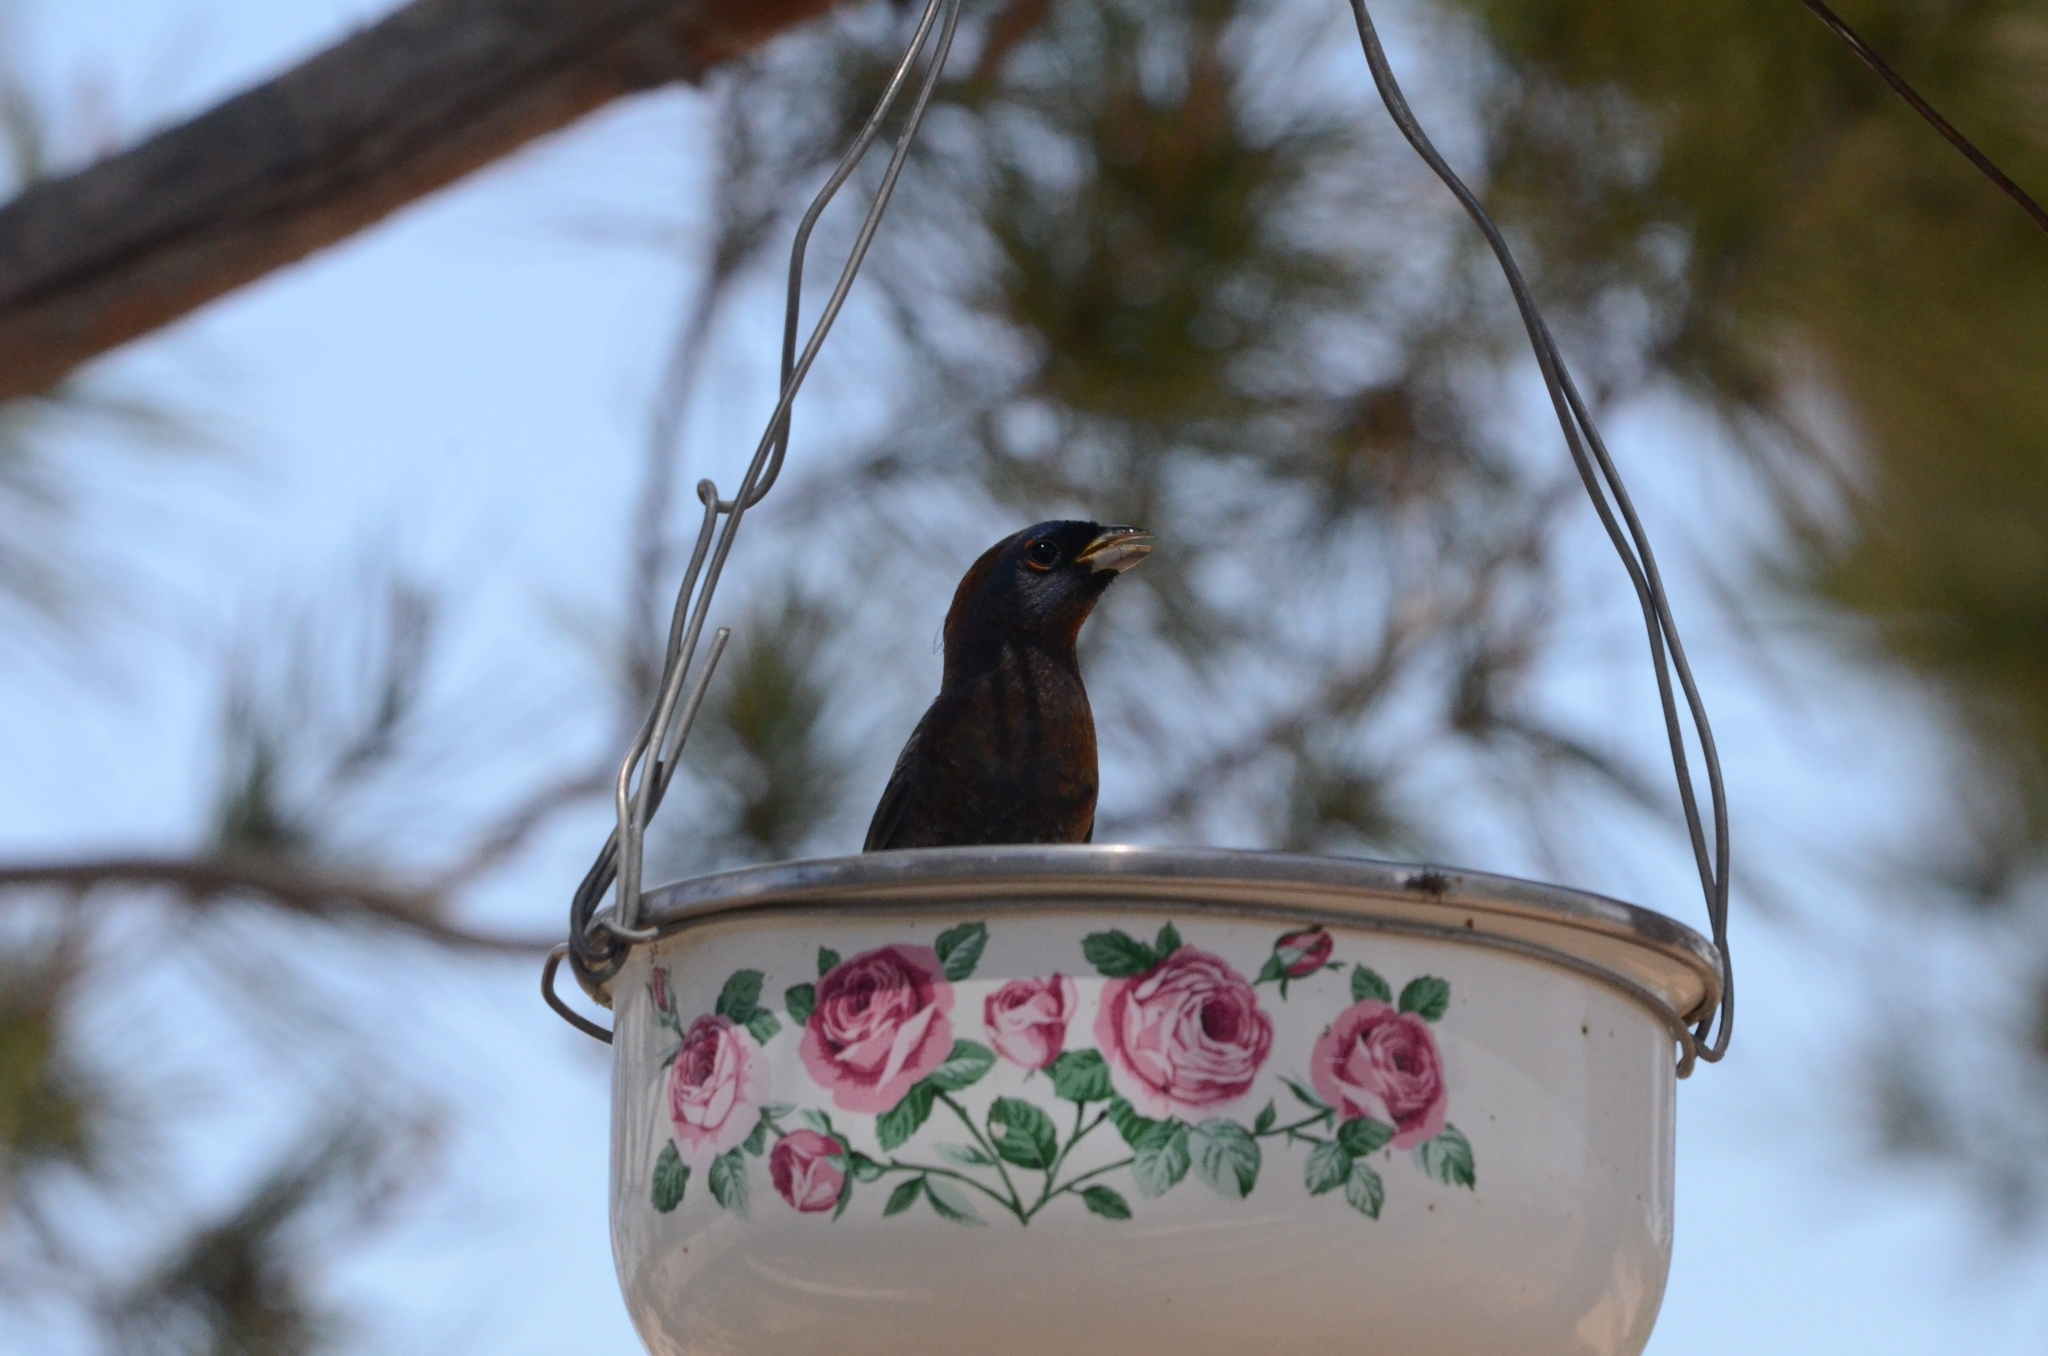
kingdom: Animalia
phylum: Chordata
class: Aves
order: Passeriformes
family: Cardinalidae
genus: Passerina
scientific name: Passerina versicolor
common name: Varied bunting
